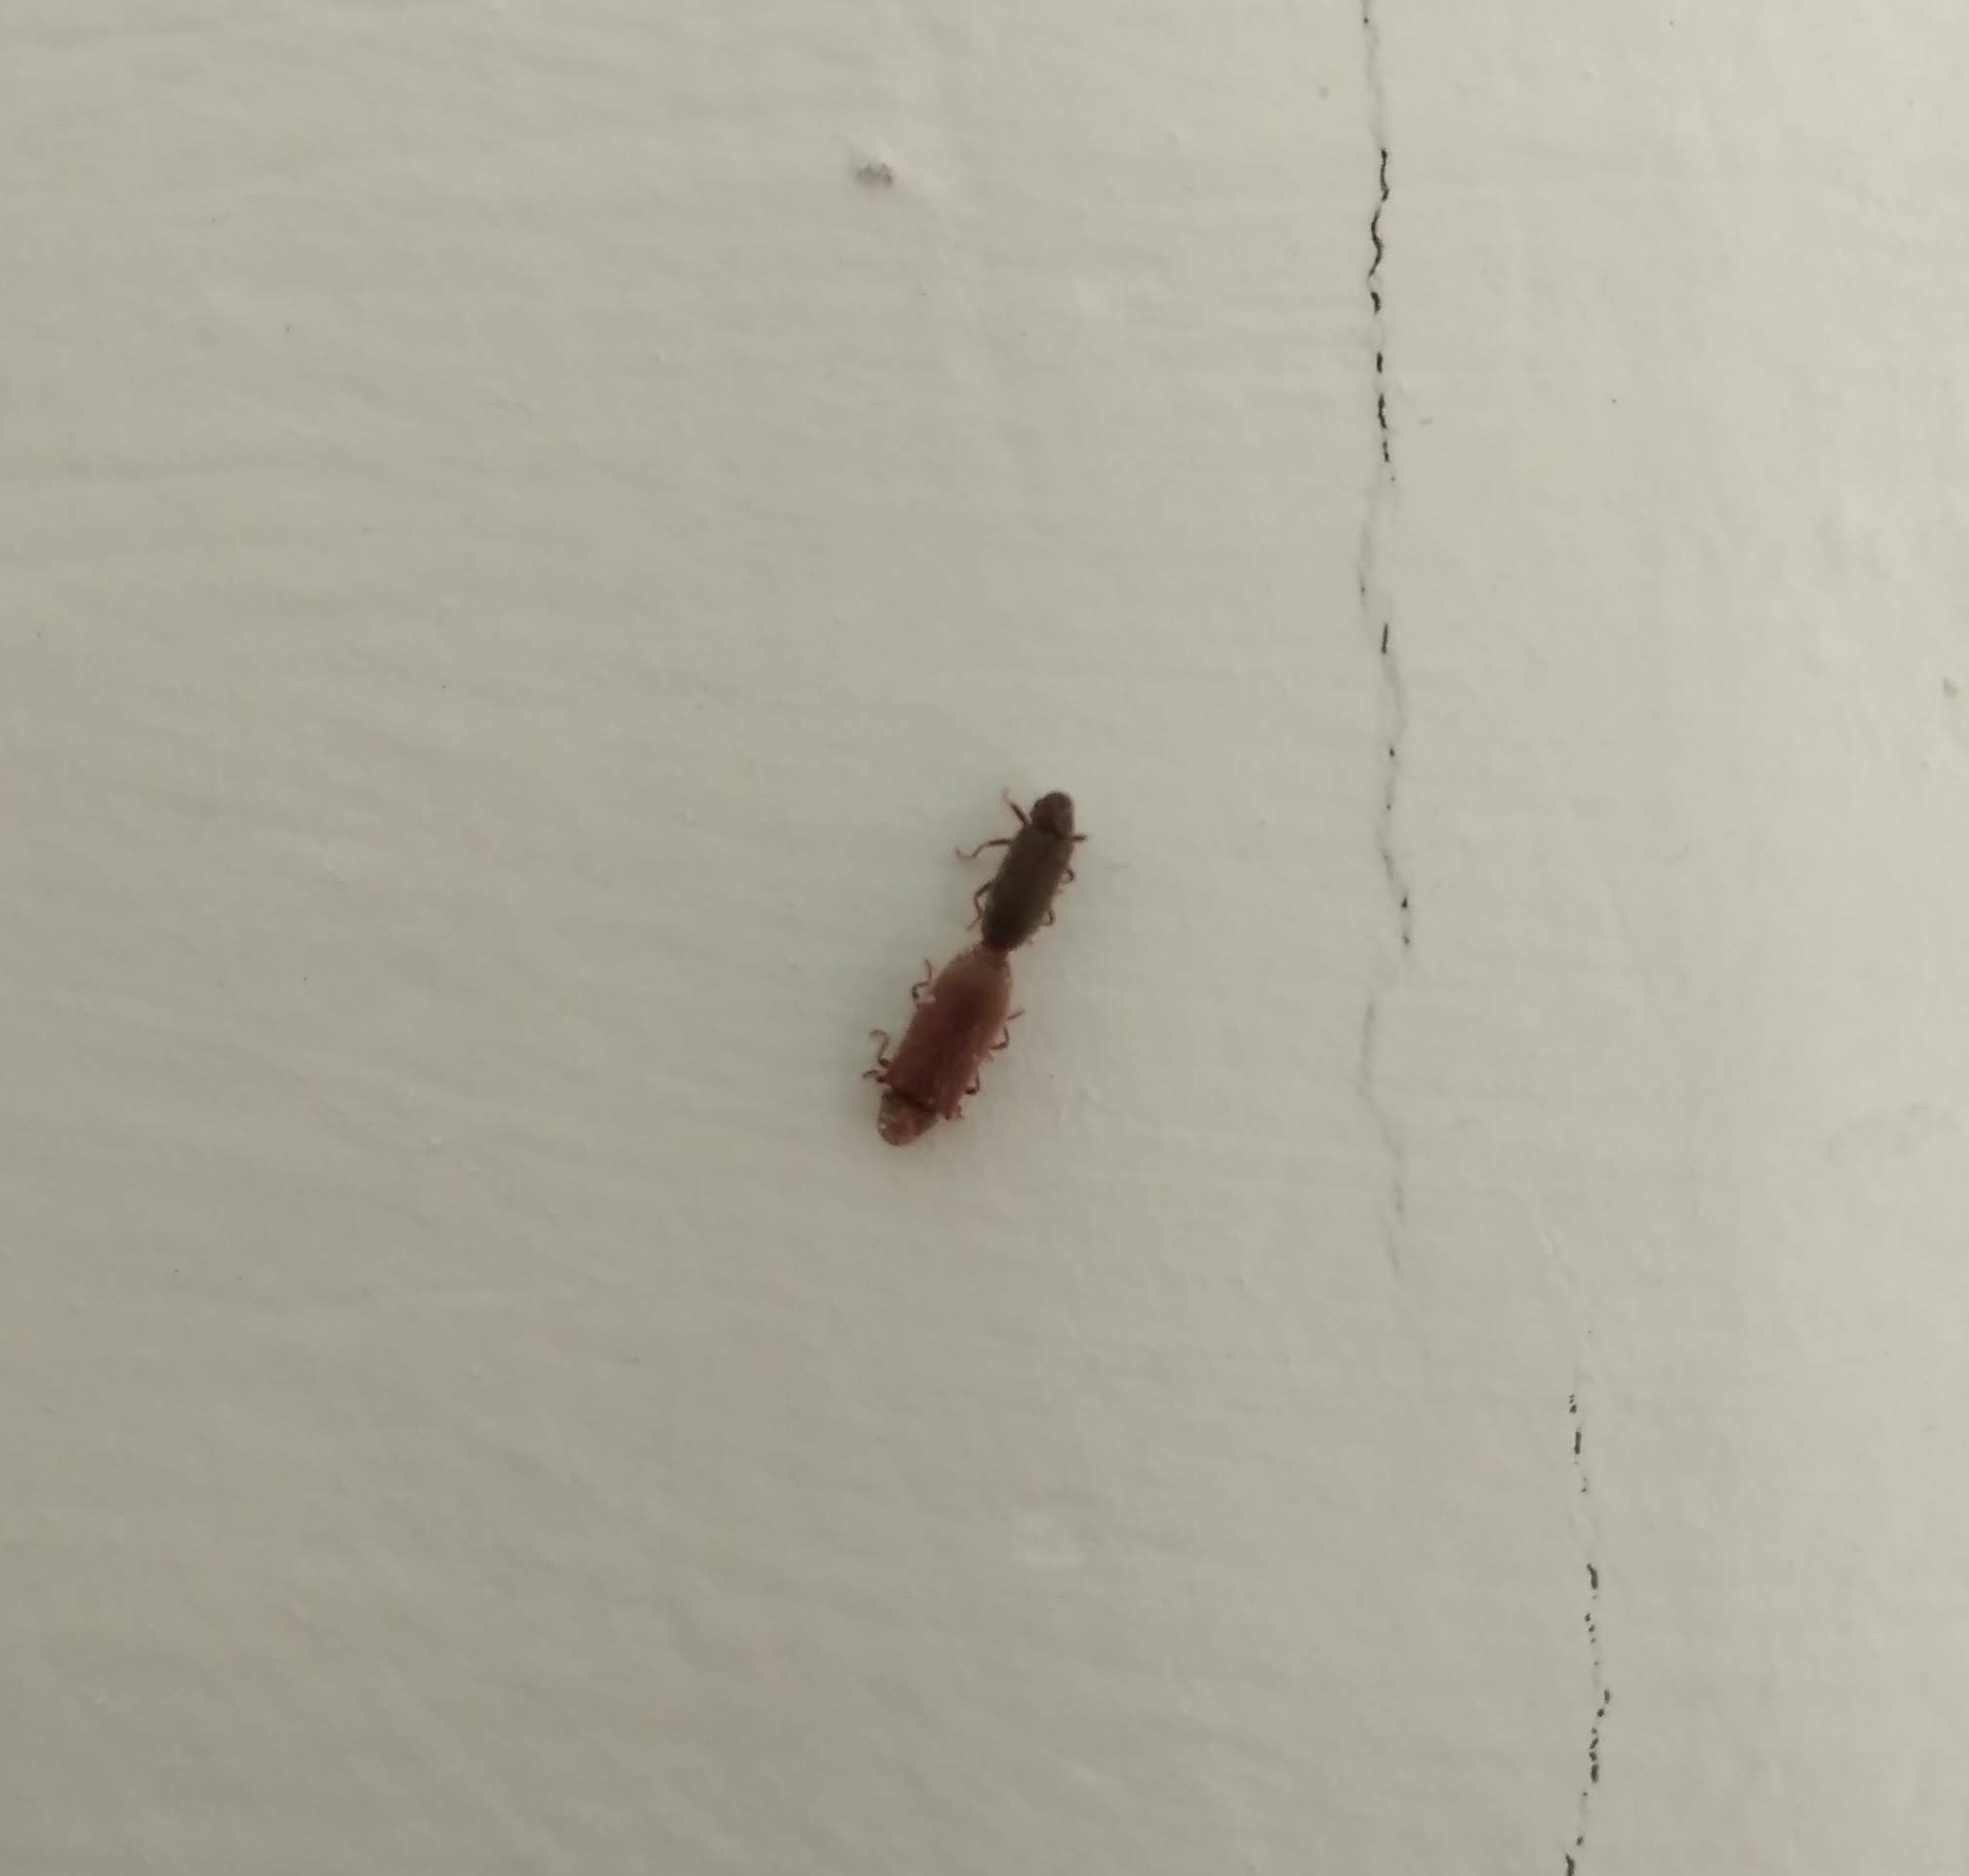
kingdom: Animalia
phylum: Arthropoda
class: Insecta
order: Coleoptera
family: Anobiidae
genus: Anobium
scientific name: Anobium punctatum
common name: Furniture beetle
